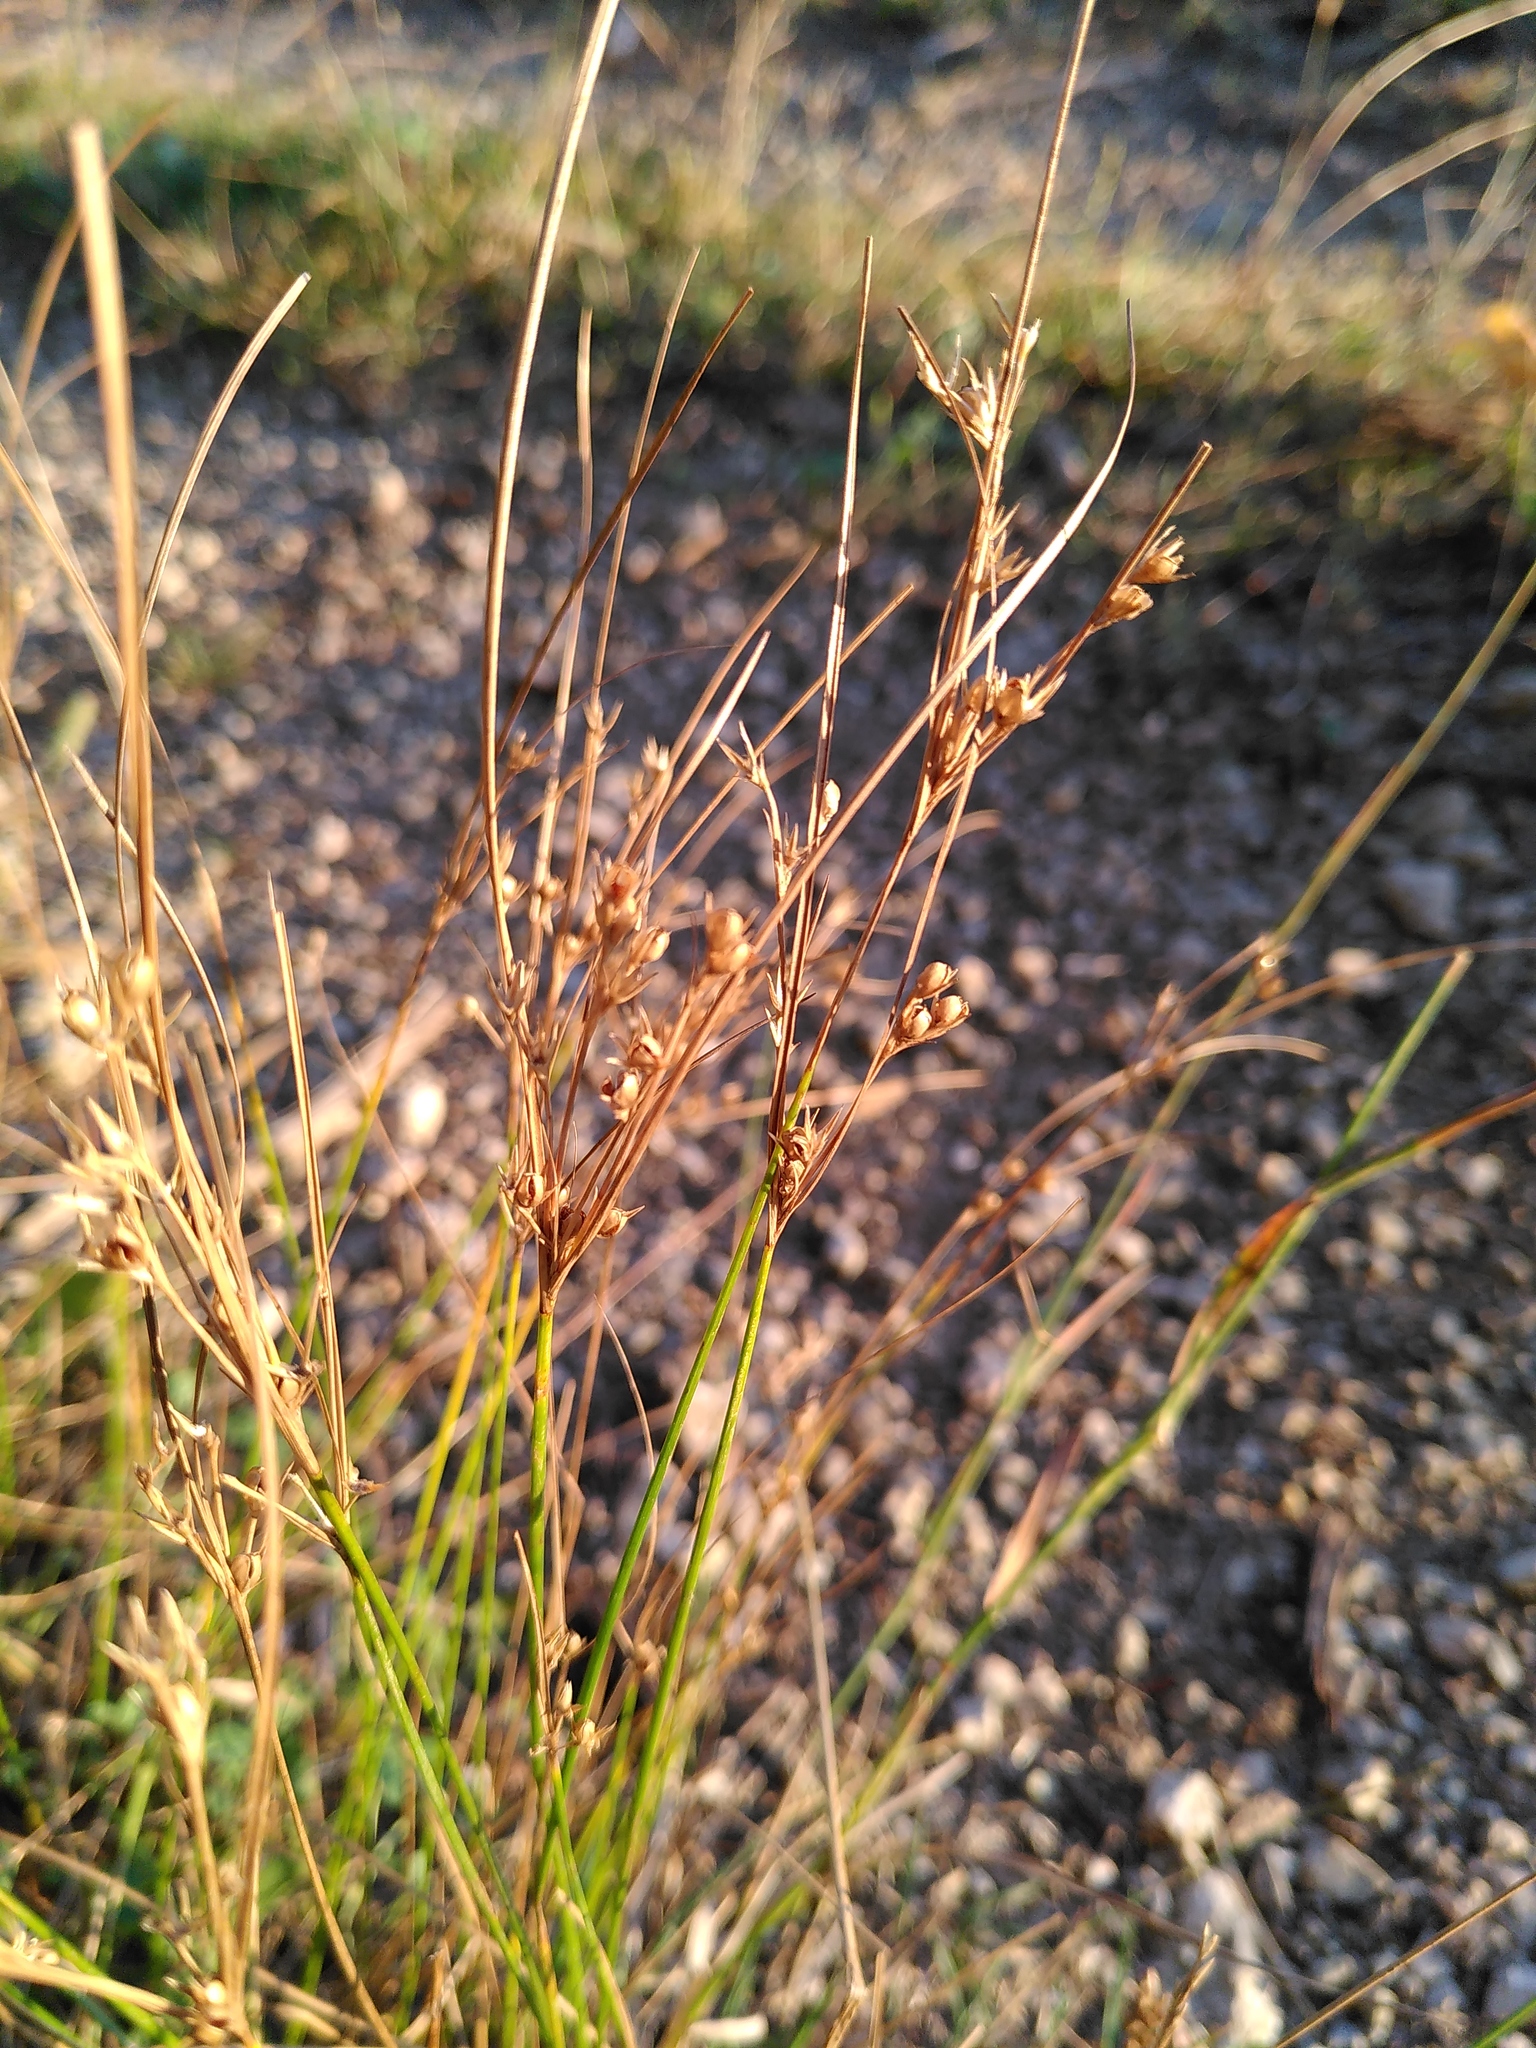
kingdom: Plantae
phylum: Tracheophyta
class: Liliopsida
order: Poales
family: Juncaceae
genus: Juncus
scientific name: Juncus tenuis
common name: Slender rush
